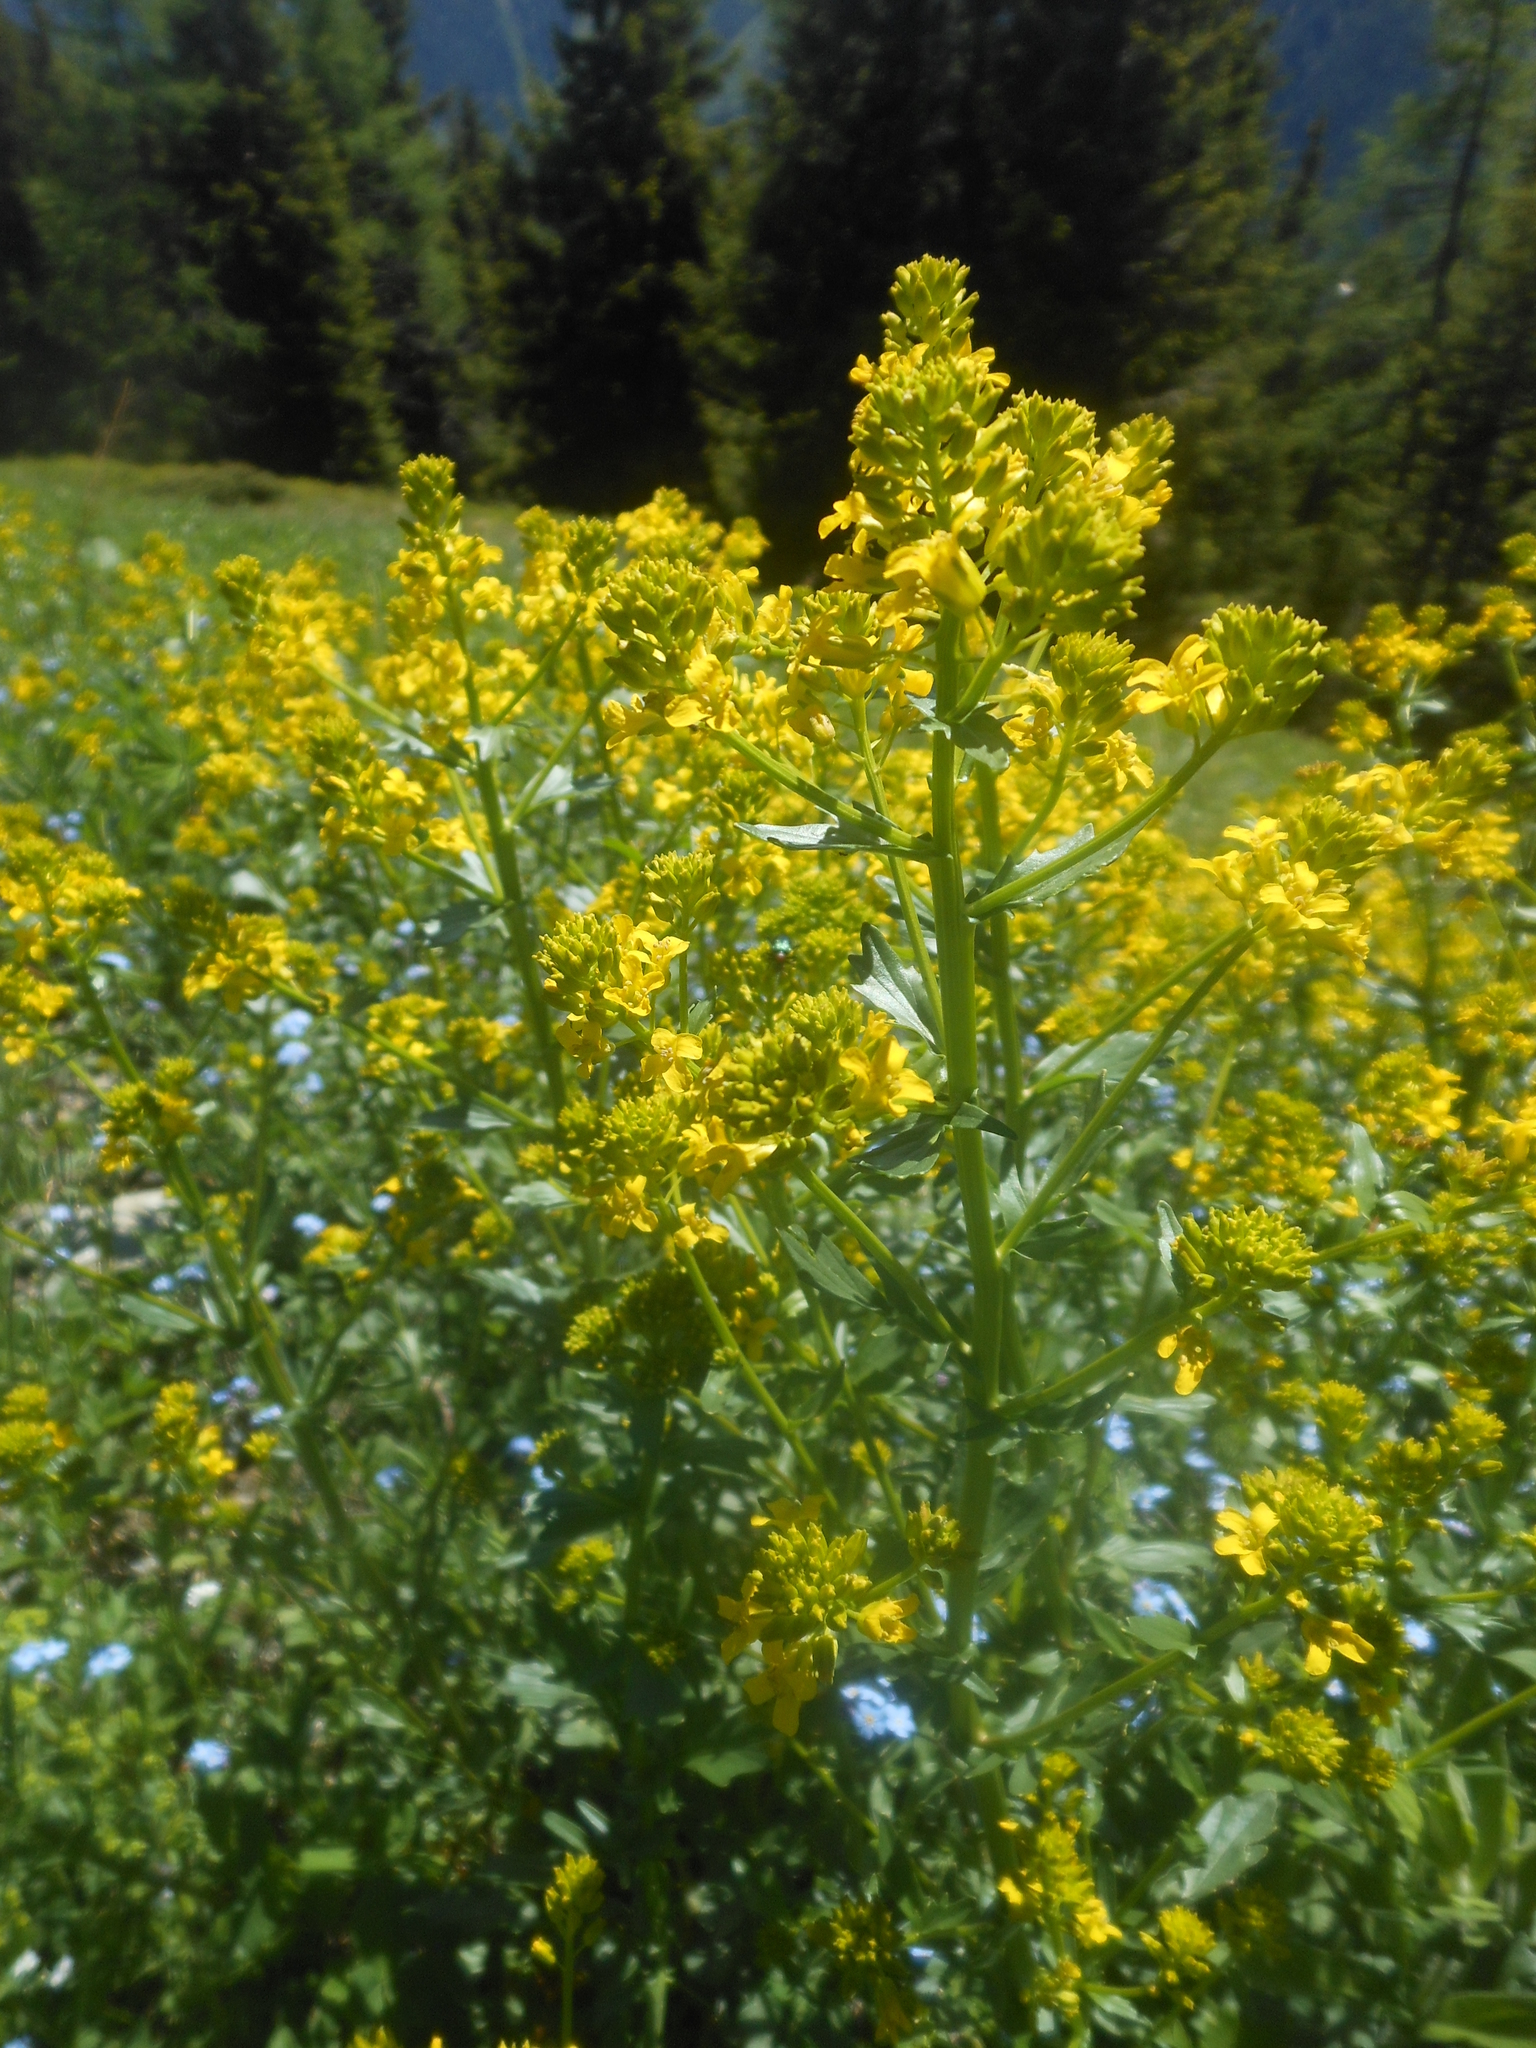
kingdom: Plantae
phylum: Tracheophyta
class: Magnoliopsida
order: Brassicales
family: Brassicaceae
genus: Barbarea
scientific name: Barbarea vulgaris
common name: Cressy-greens
